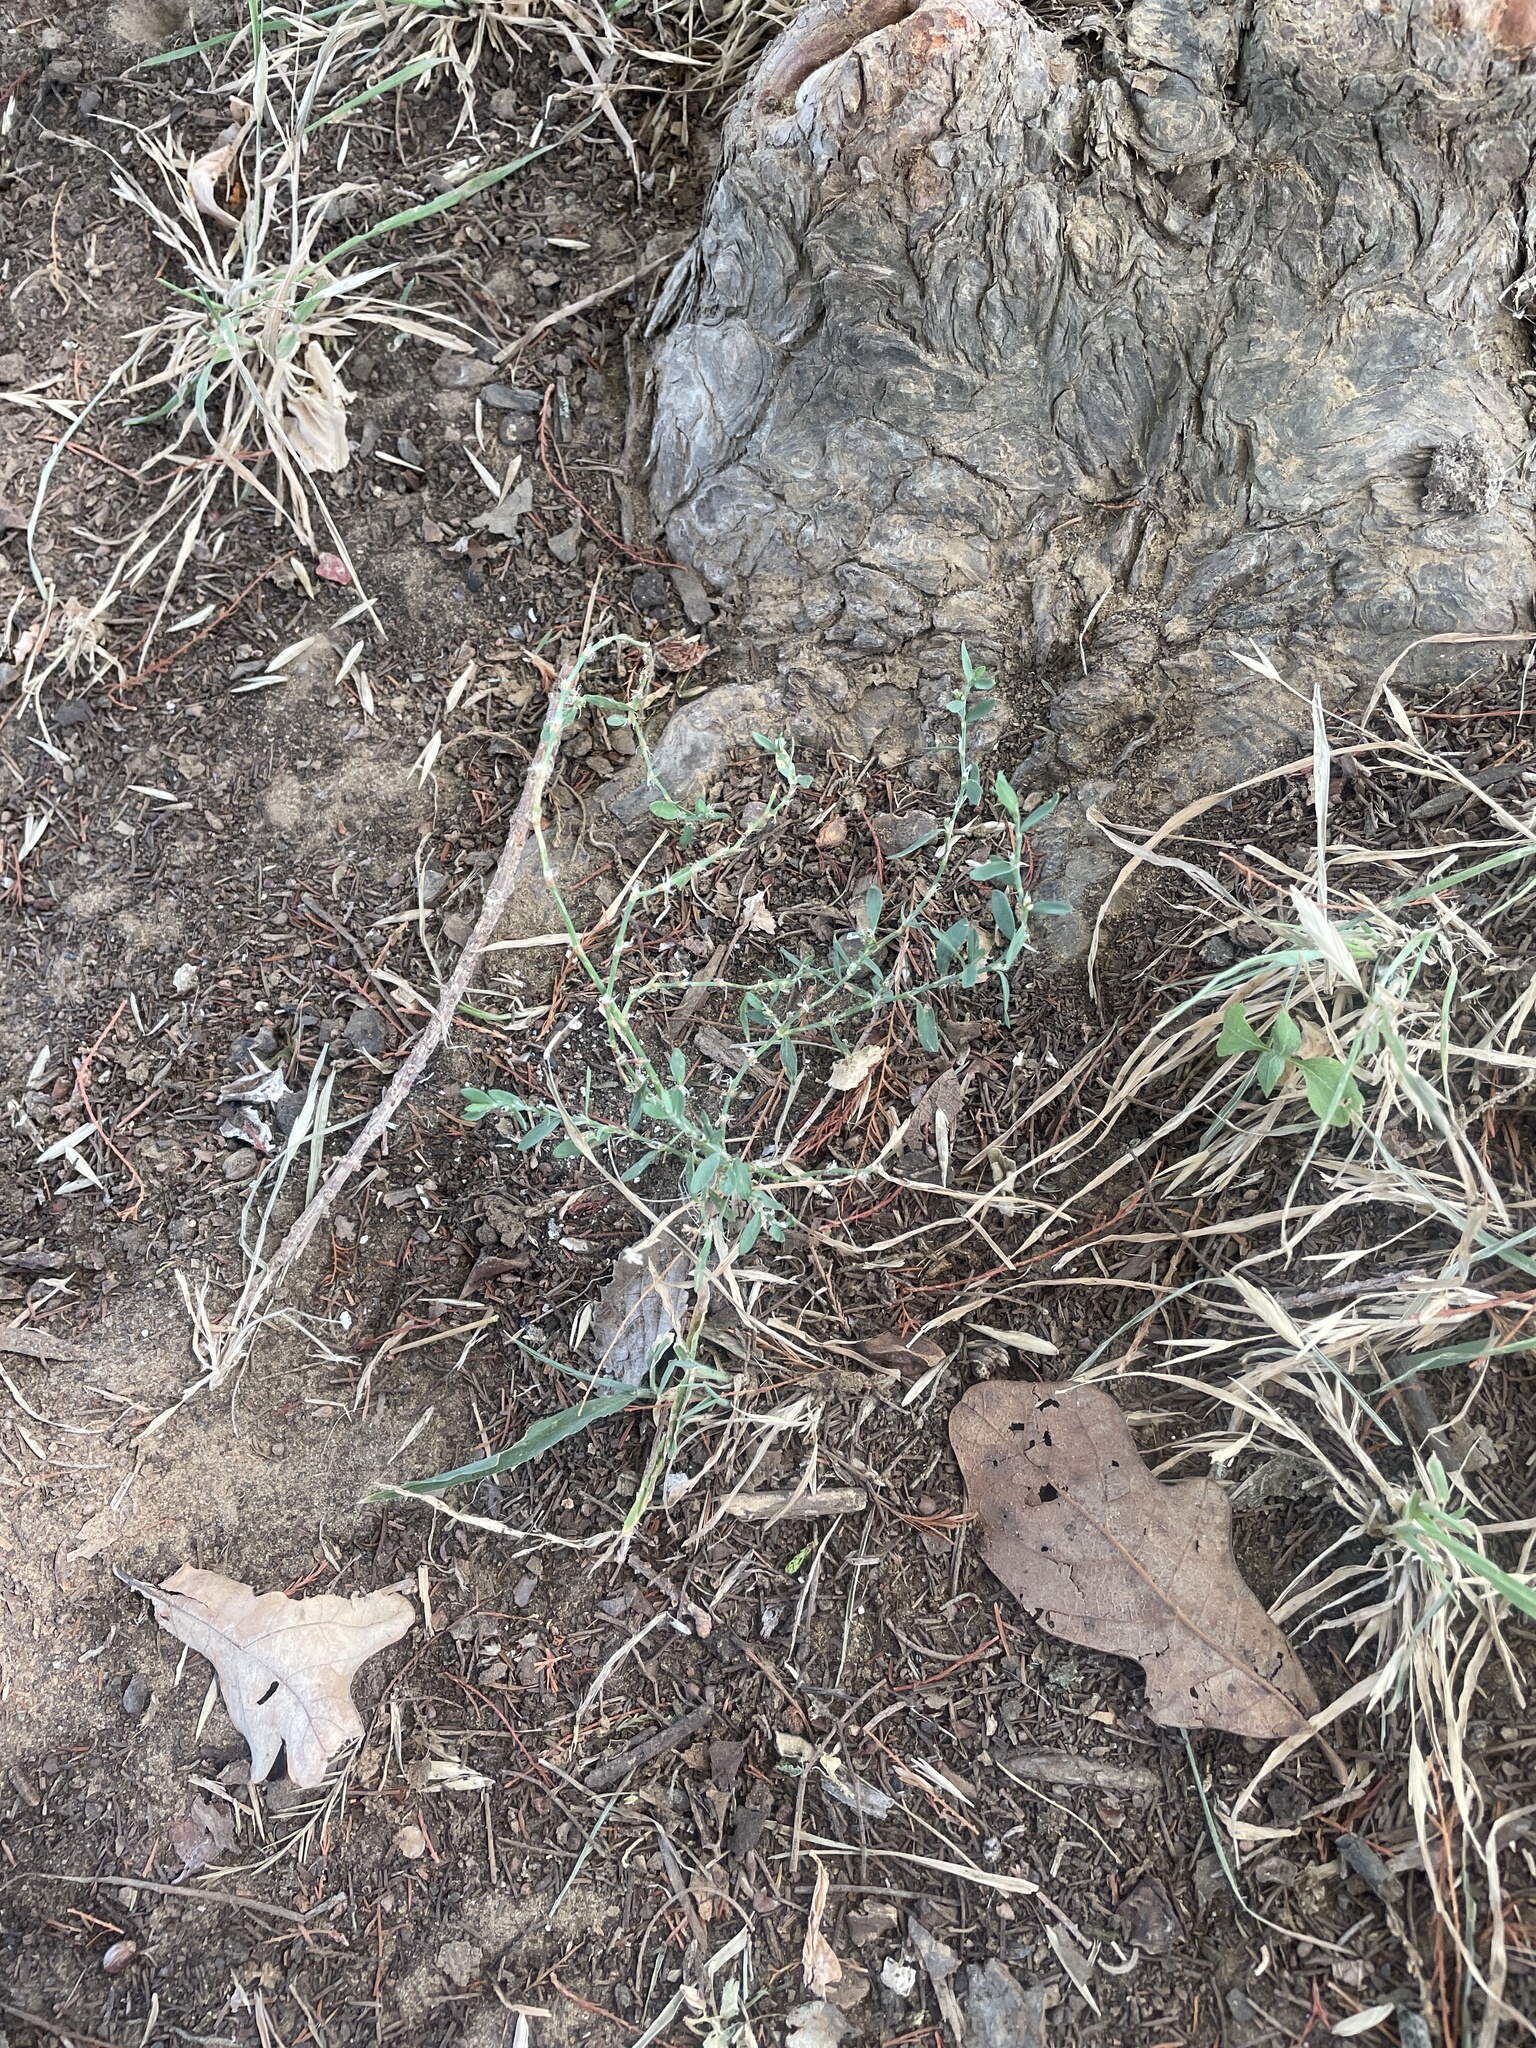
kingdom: Plantae
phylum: Tracheophyta
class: Magnoliopsida
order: Caryophyllales
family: Polygonaceae
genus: Polygonum
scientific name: Polygonum aviculare
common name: Prostrate knotweed
